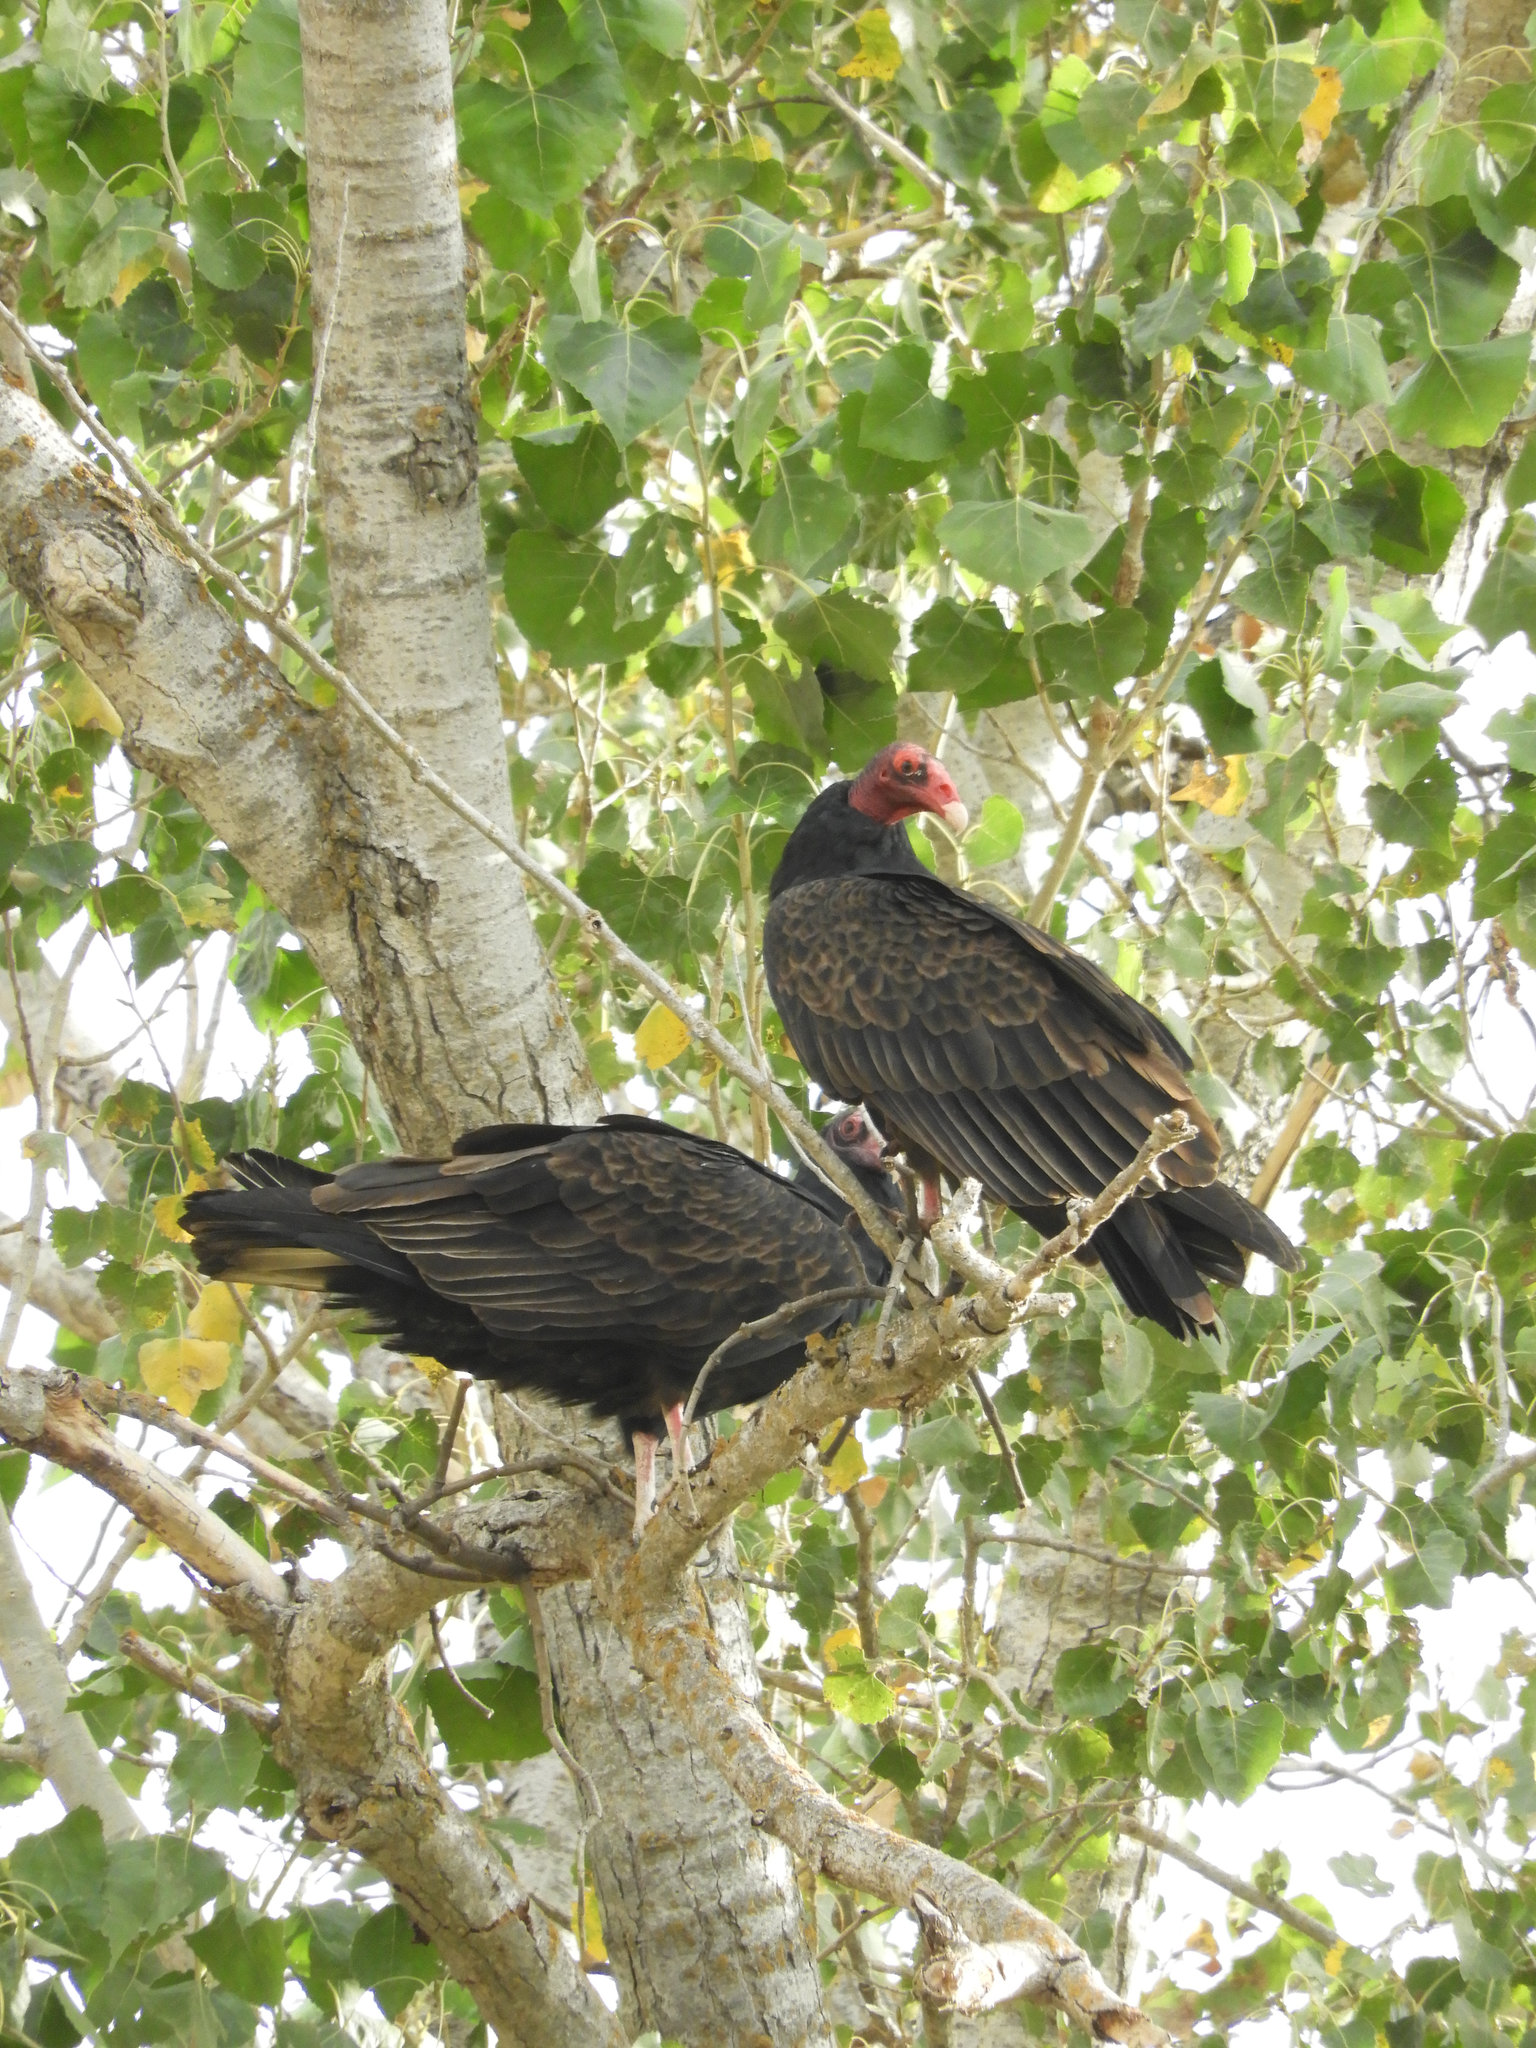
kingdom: Animalia
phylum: Chordata
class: Aves
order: Accipitriformes
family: Cathartidae
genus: Cathartes
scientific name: Cathartes aura
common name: Turkey vulture
